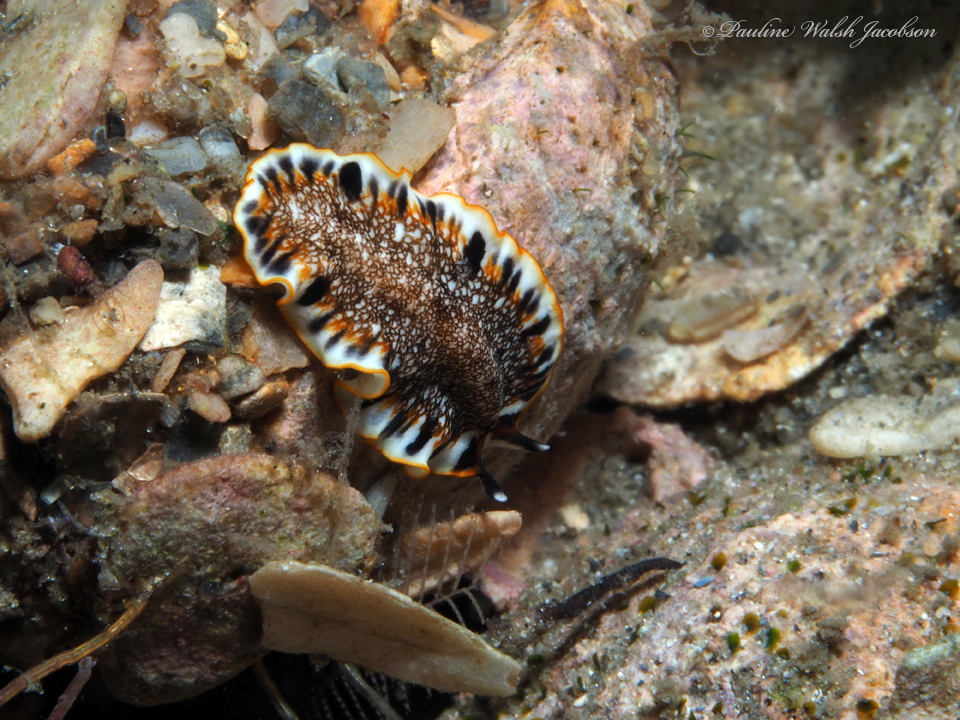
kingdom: Animalia
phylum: Platyhelminthes
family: Euryleptidae
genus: Prostheceraeus
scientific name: Prostheceraeus floridanus
